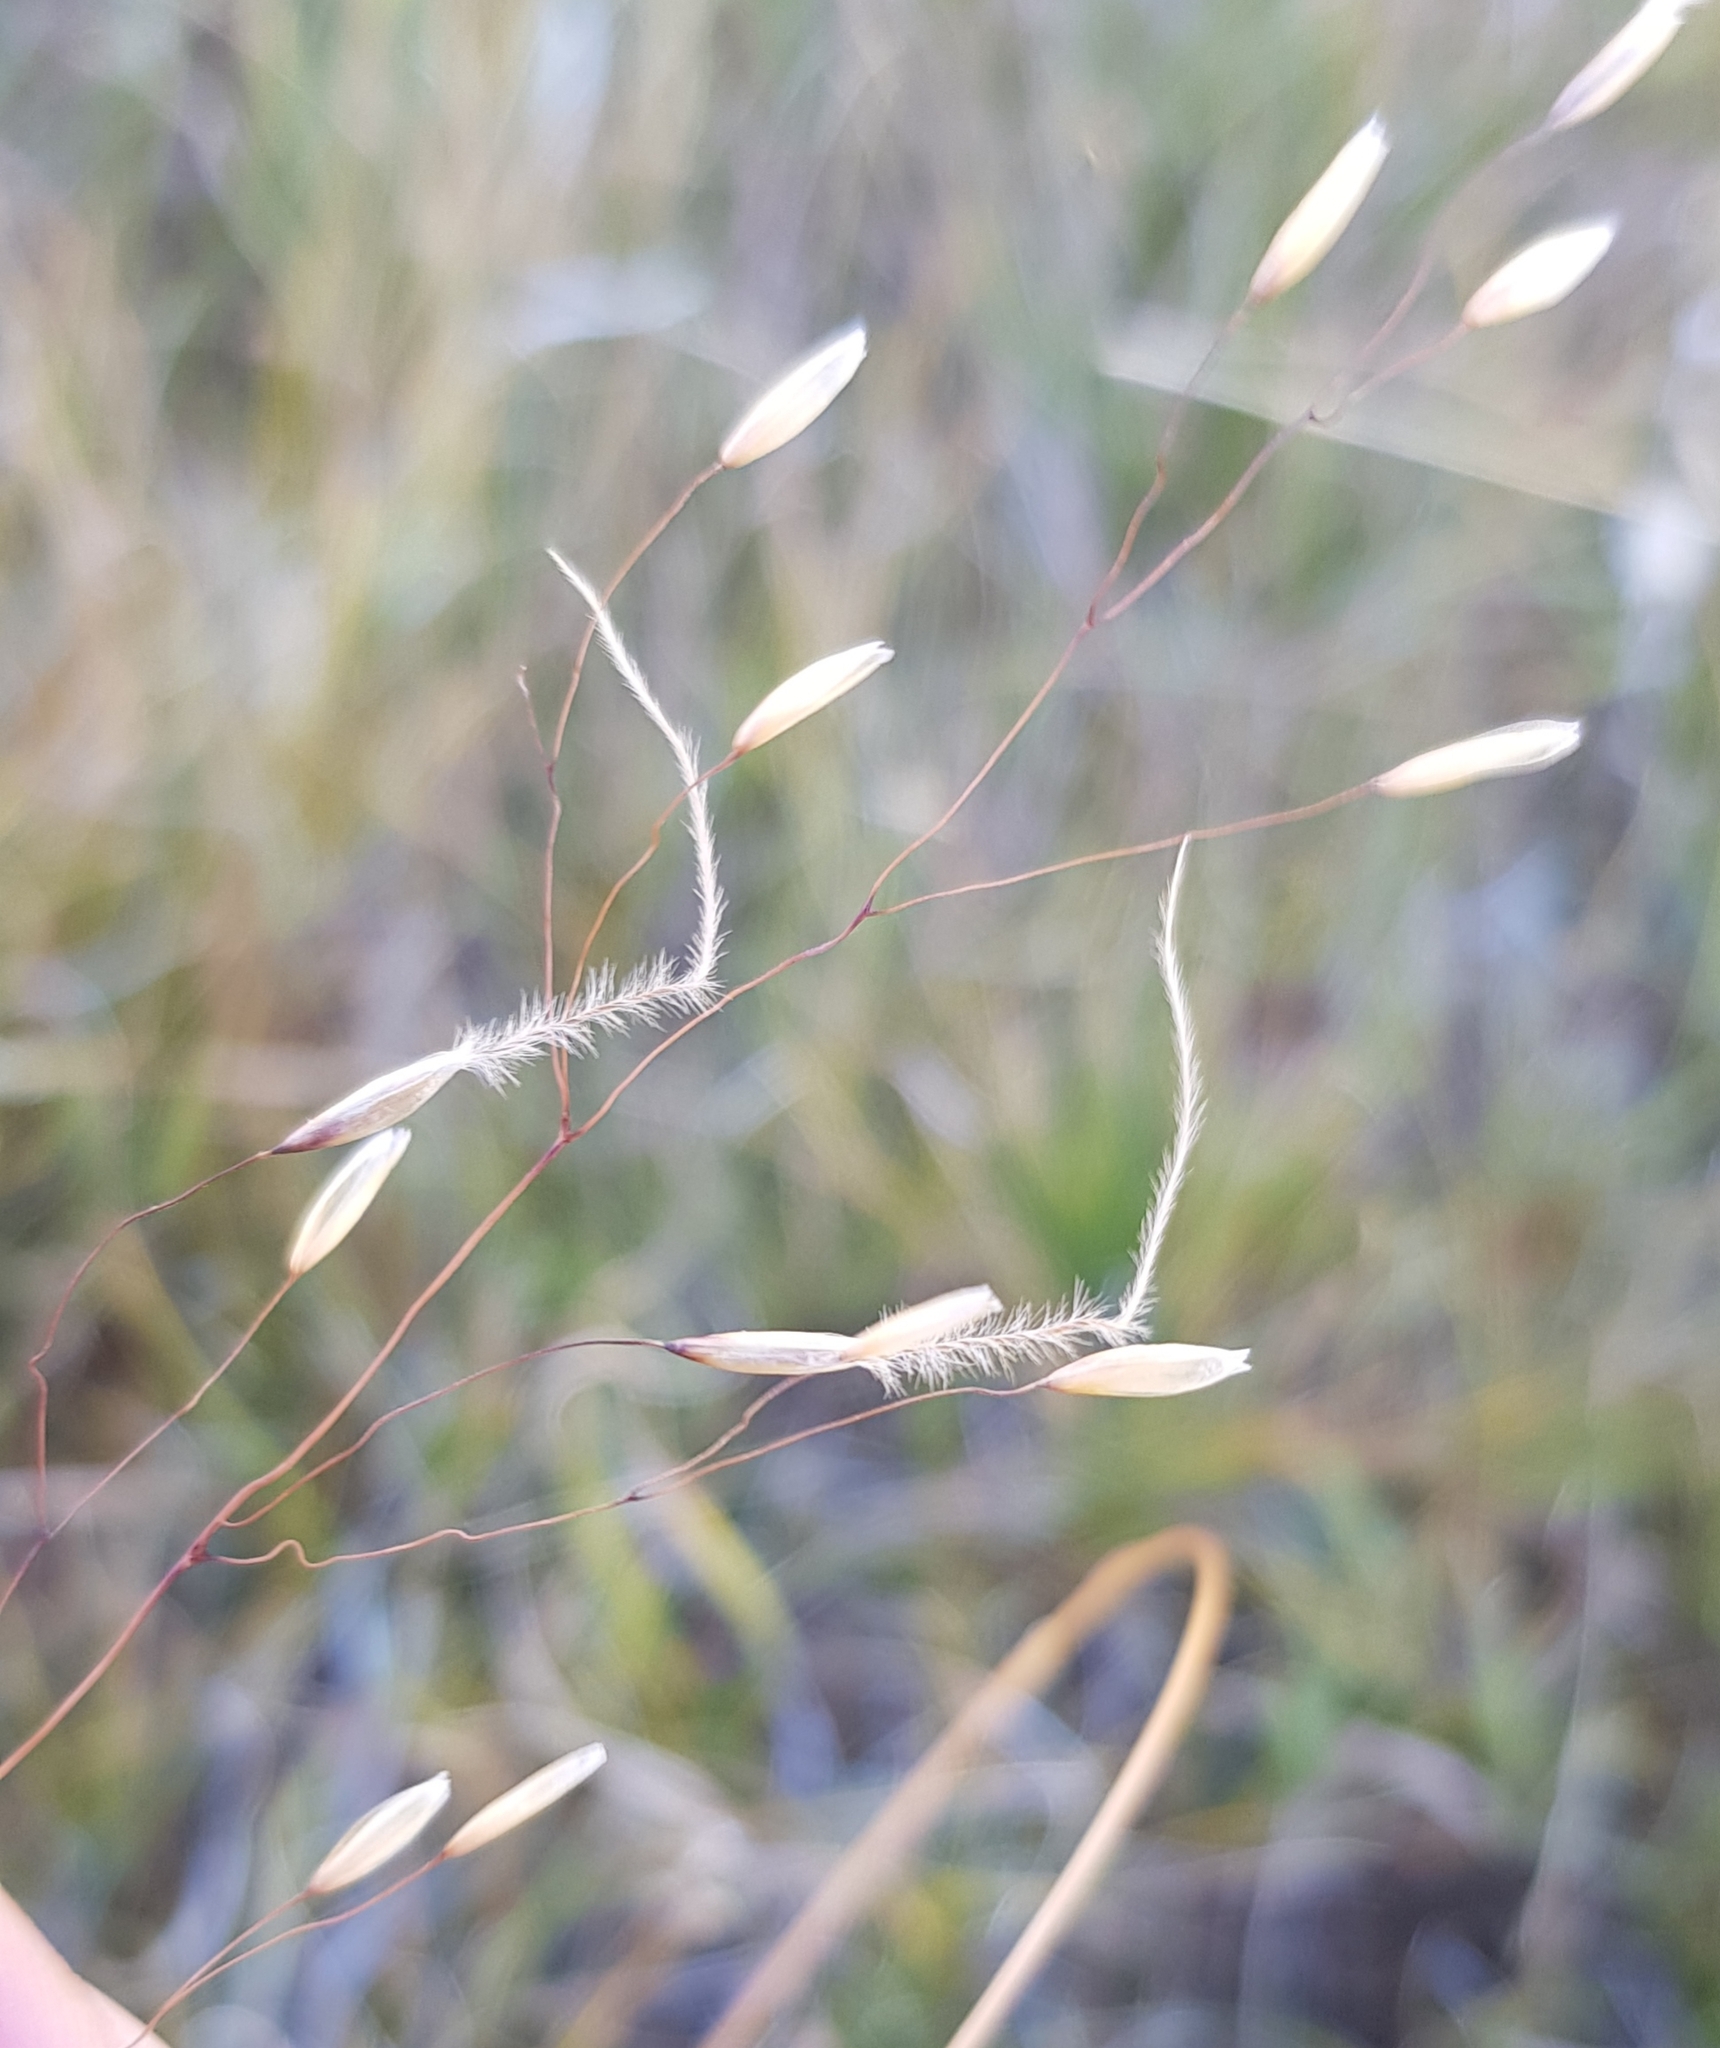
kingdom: Plantae
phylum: Tracheophyta
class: Liliopsida
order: Poales
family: Poaceae
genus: Ptilagrostis
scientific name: Ptilagrostis mongholica
